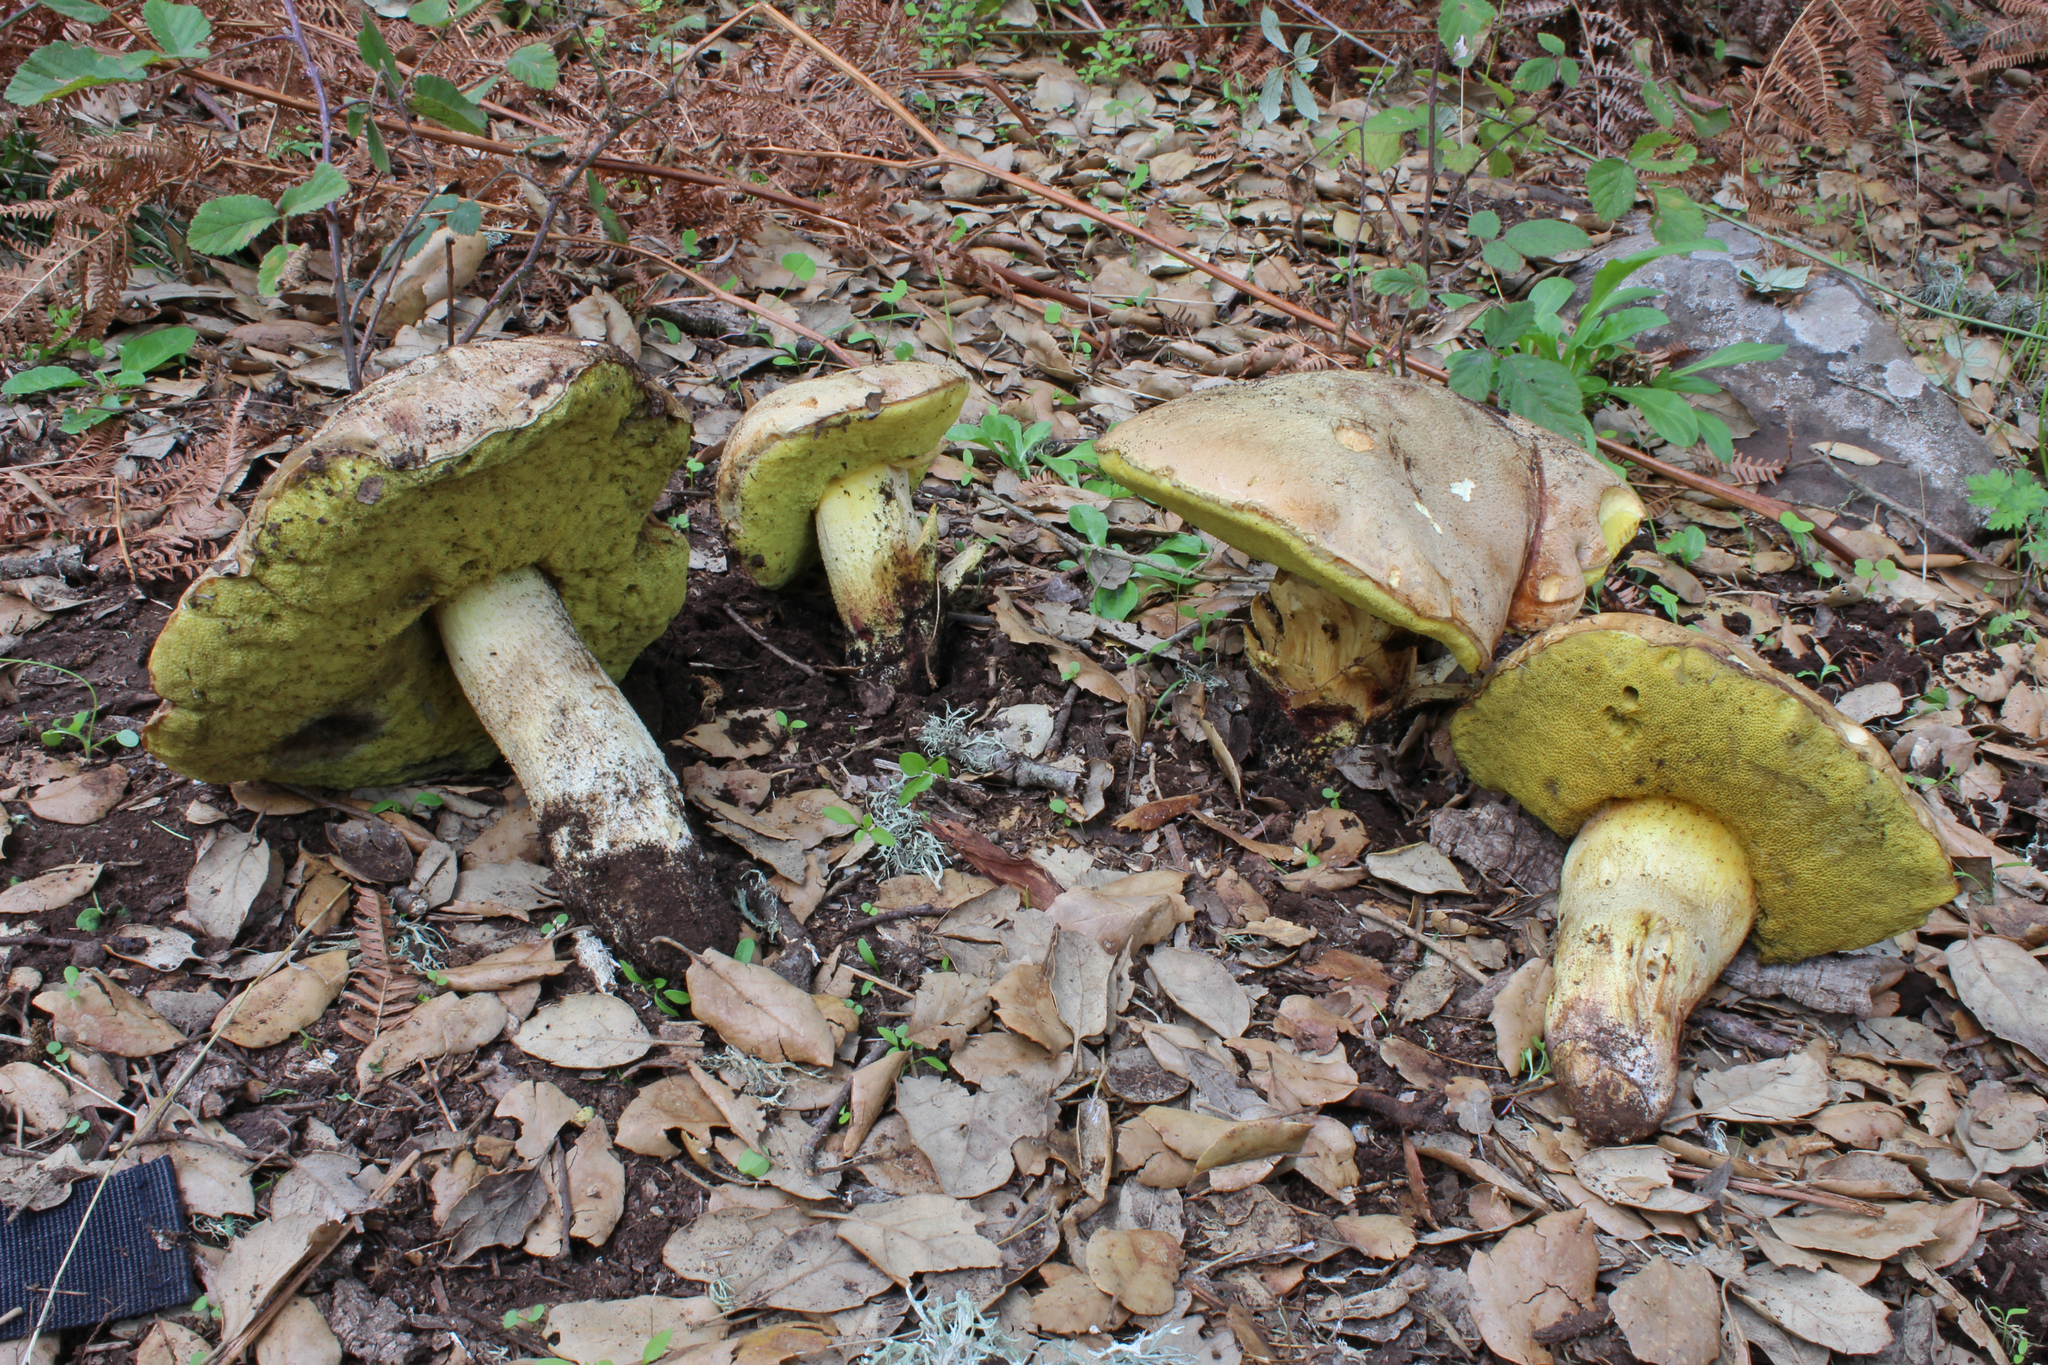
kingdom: Fungi
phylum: Basidiomycota
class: Agaricomycetes
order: Boletales
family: Boletaceae
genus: Hemileccinum
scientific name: Hemileccinum impolitum
